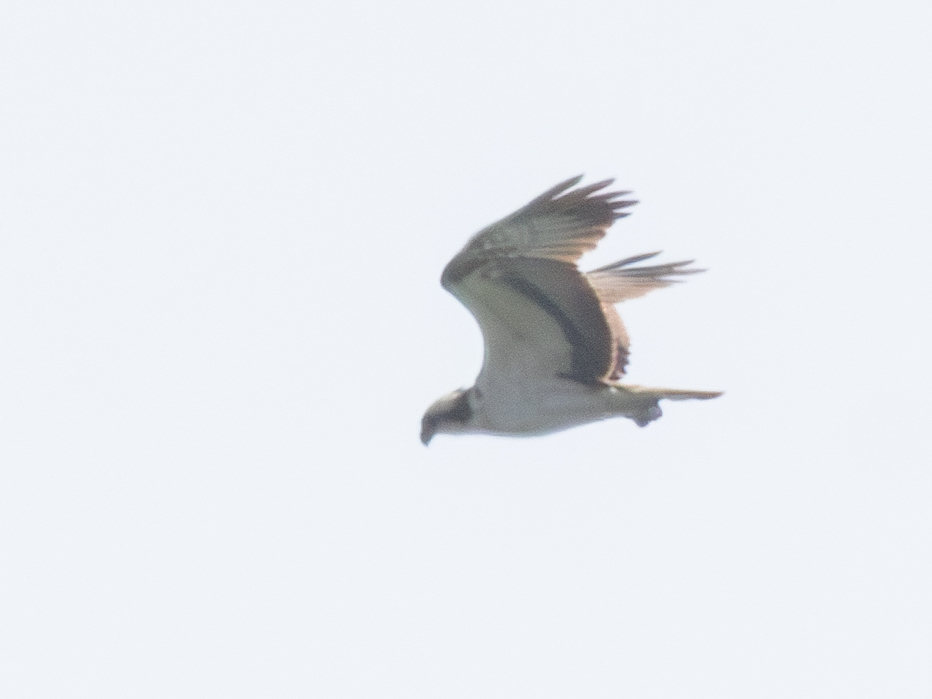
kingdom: Animalia
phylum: Chordata
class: Aves
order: Accipitriformes
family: Pandionidae
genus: Pandion
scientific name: Pandion haliaetus
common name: Osprey
